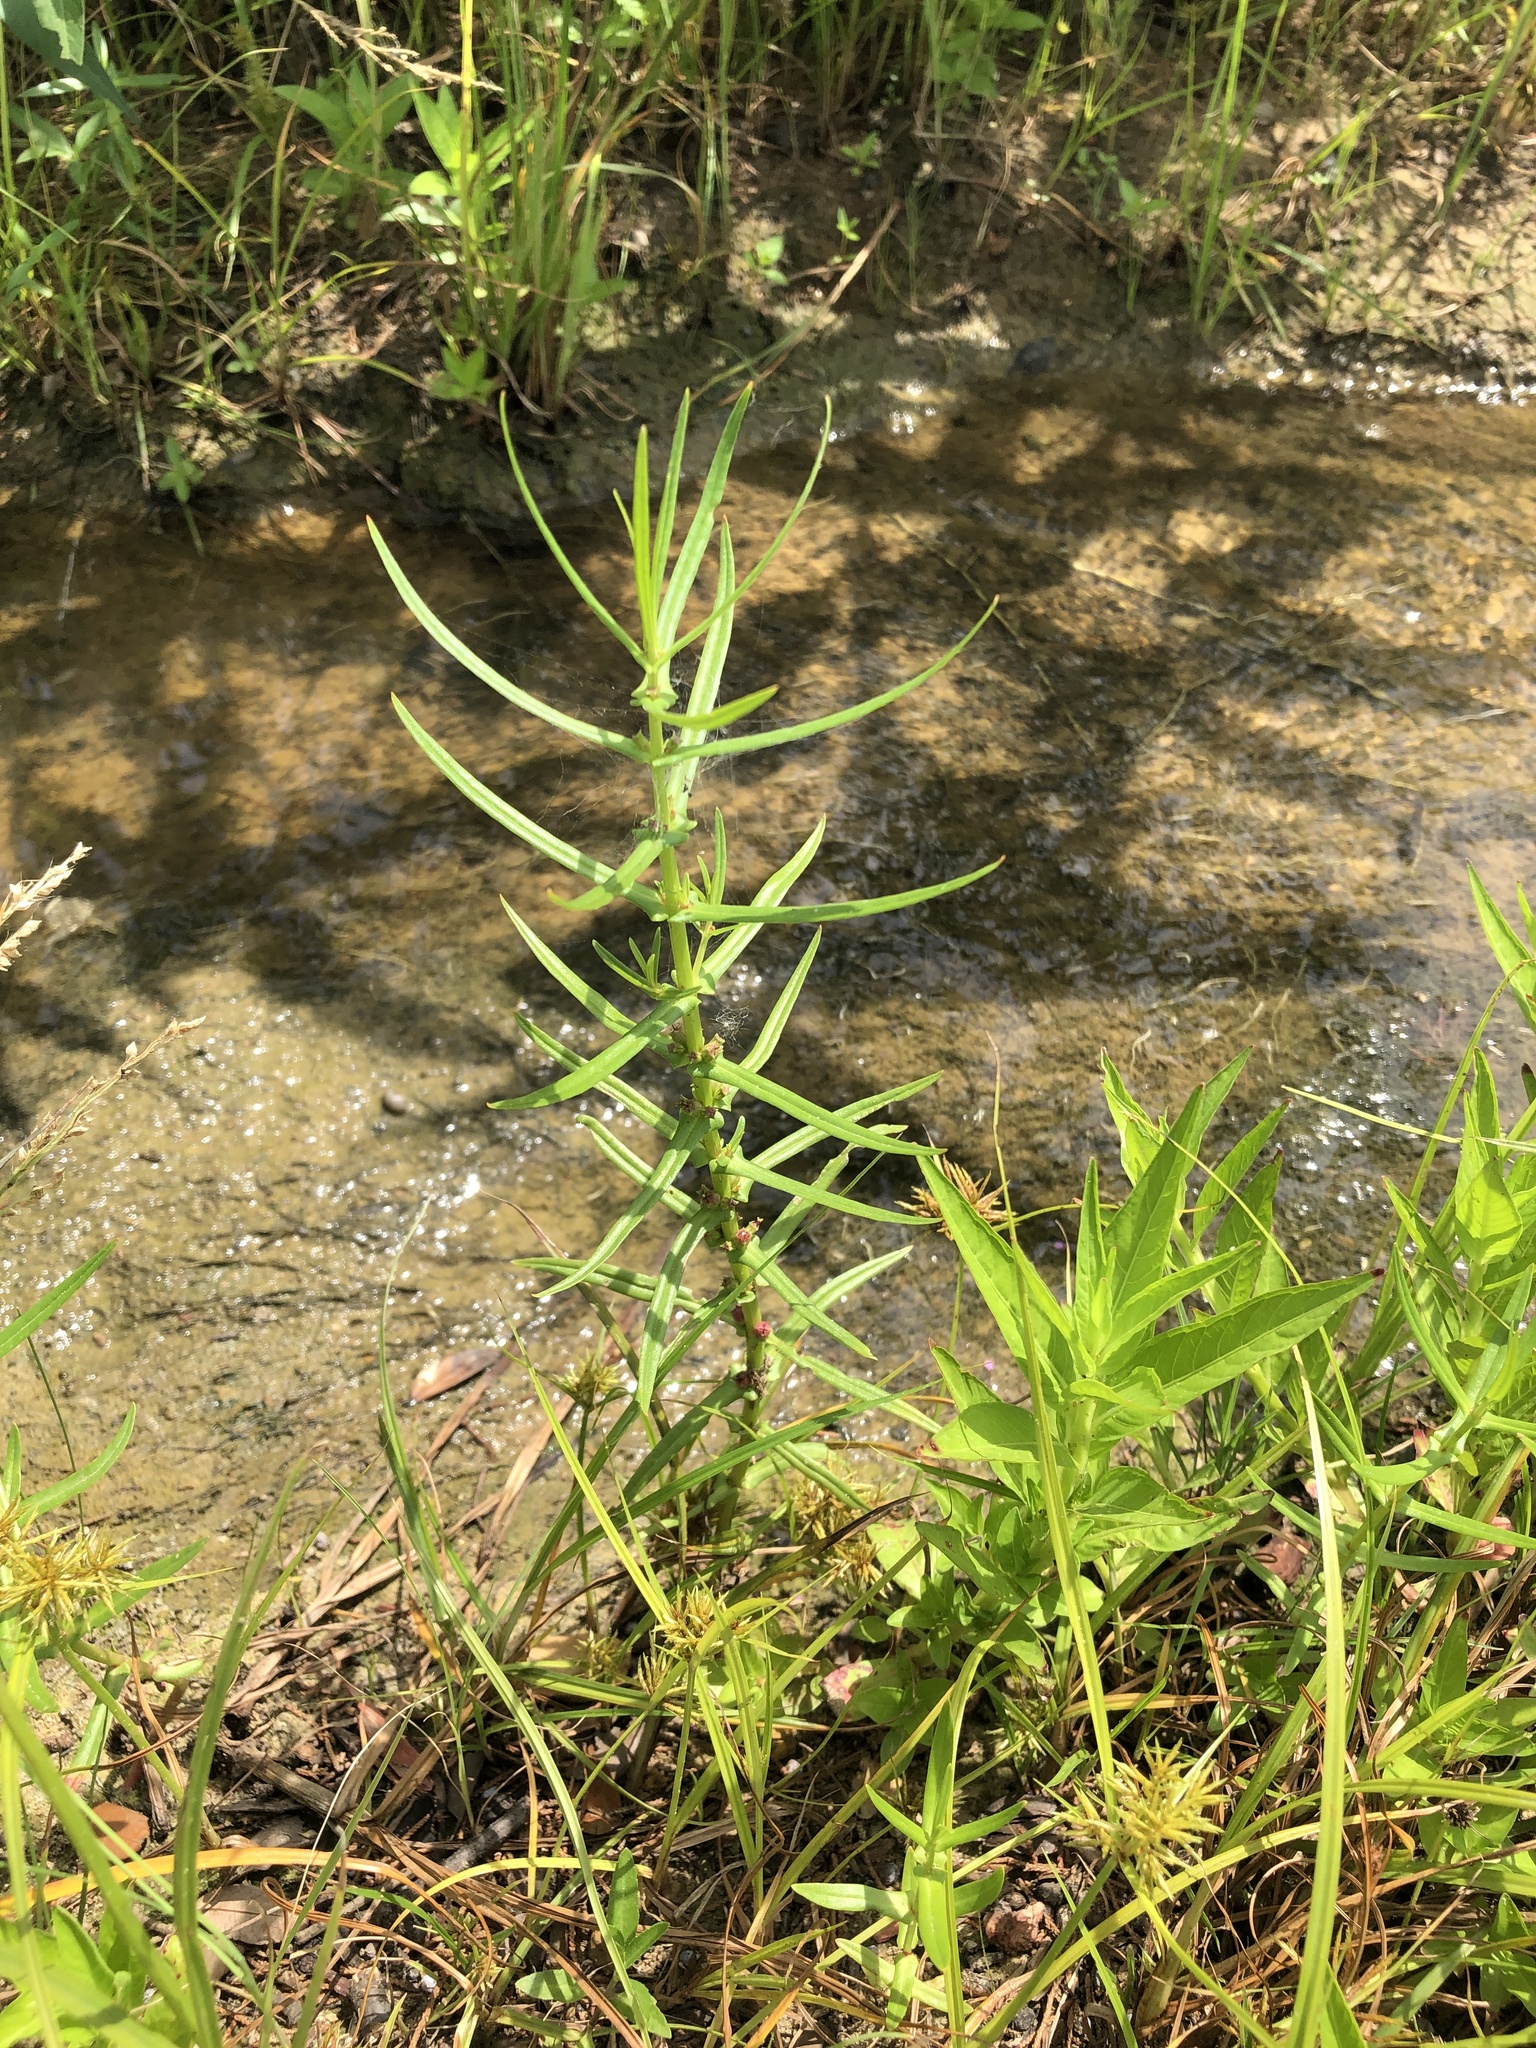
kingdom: Plantae
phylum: Tracheophyta
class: Magnoliopsida
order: Myrtales
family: Lythraceae
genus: Ammannia
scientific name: Ammannia coccinea
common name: Valley redstem
